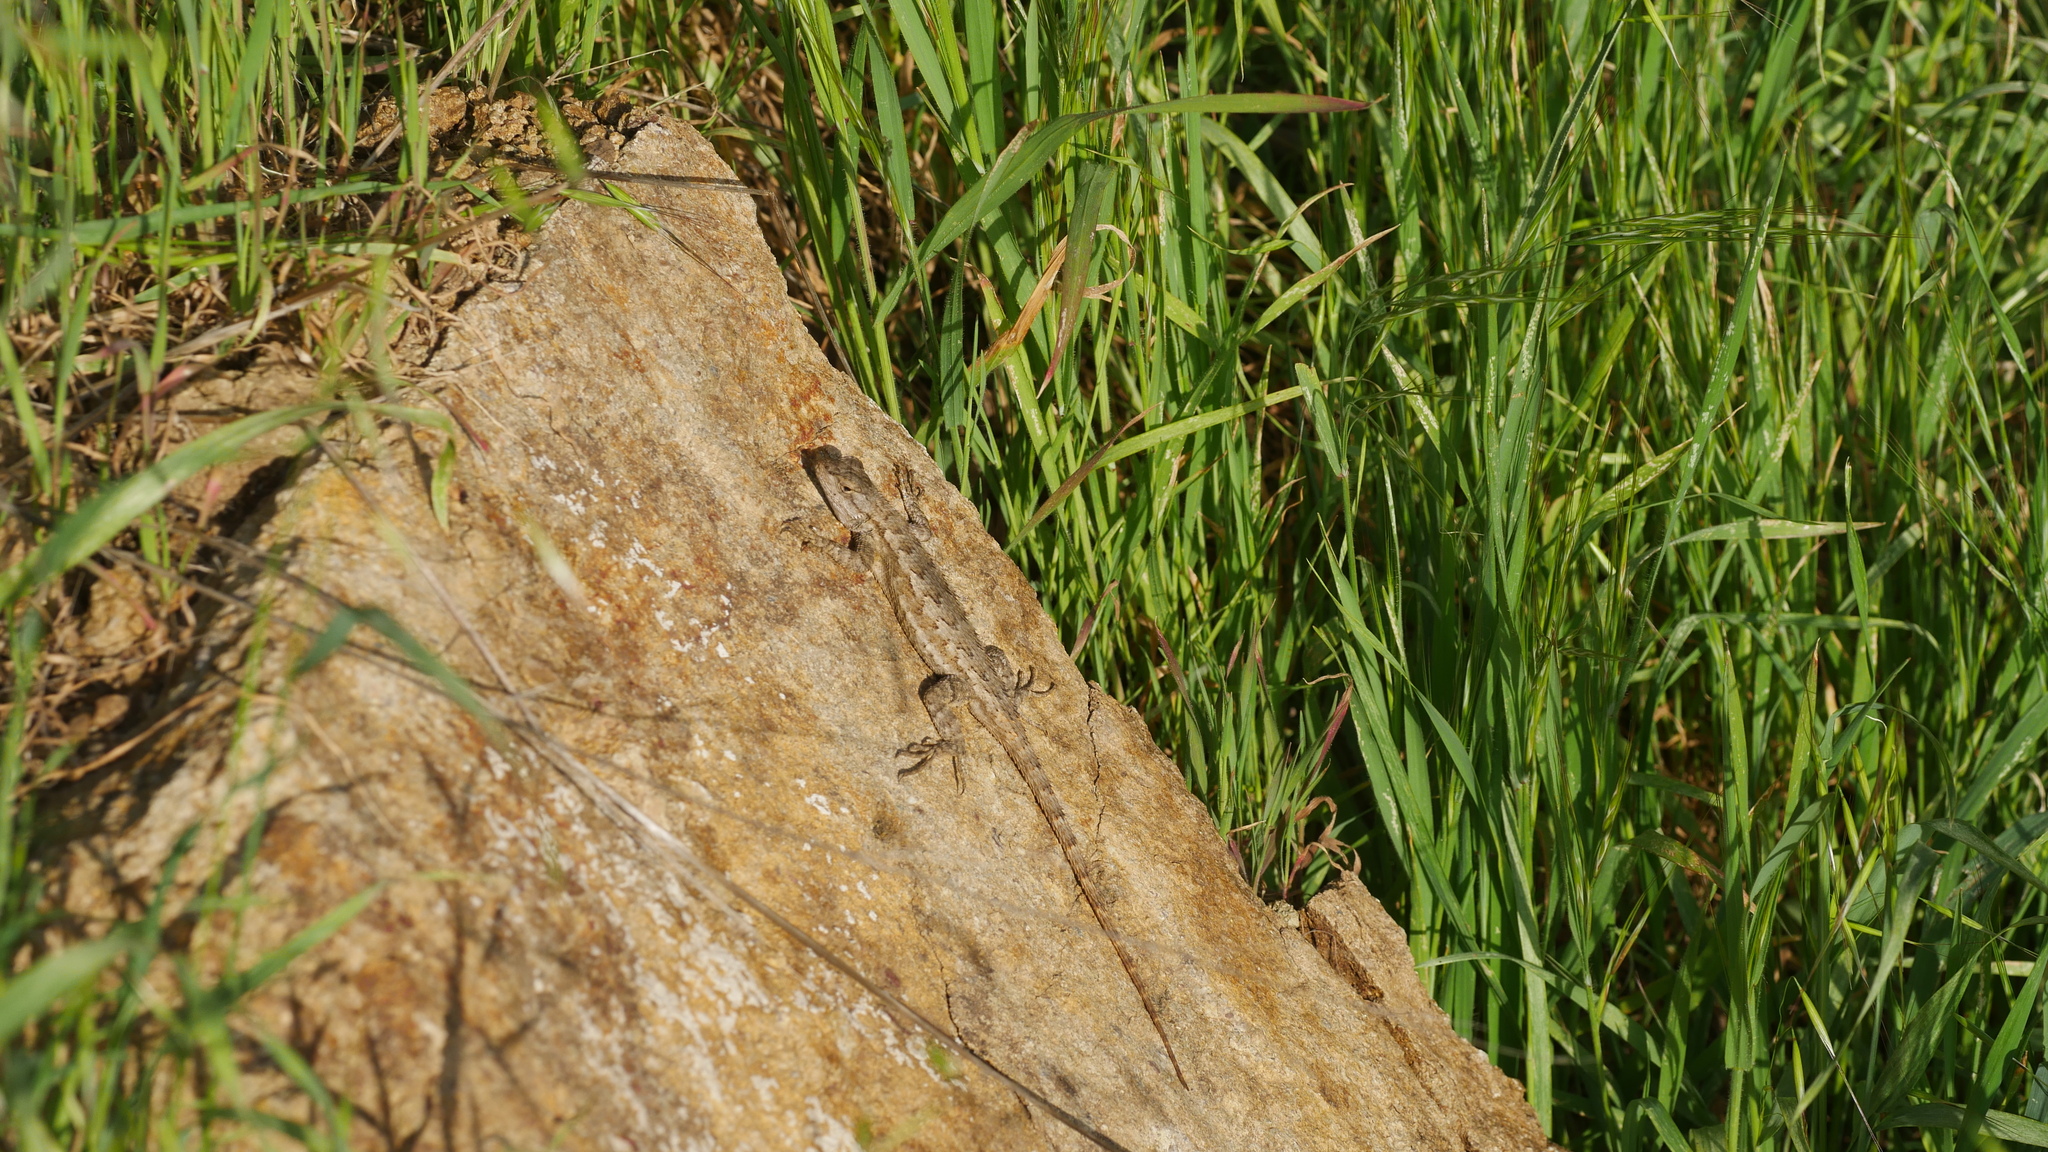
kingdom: Animalia
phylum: Chordata
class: Squamata
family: Phrynosomatidae
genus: Sceloporus
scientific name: Sceloporus occidentalis
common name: Western fence lizard
